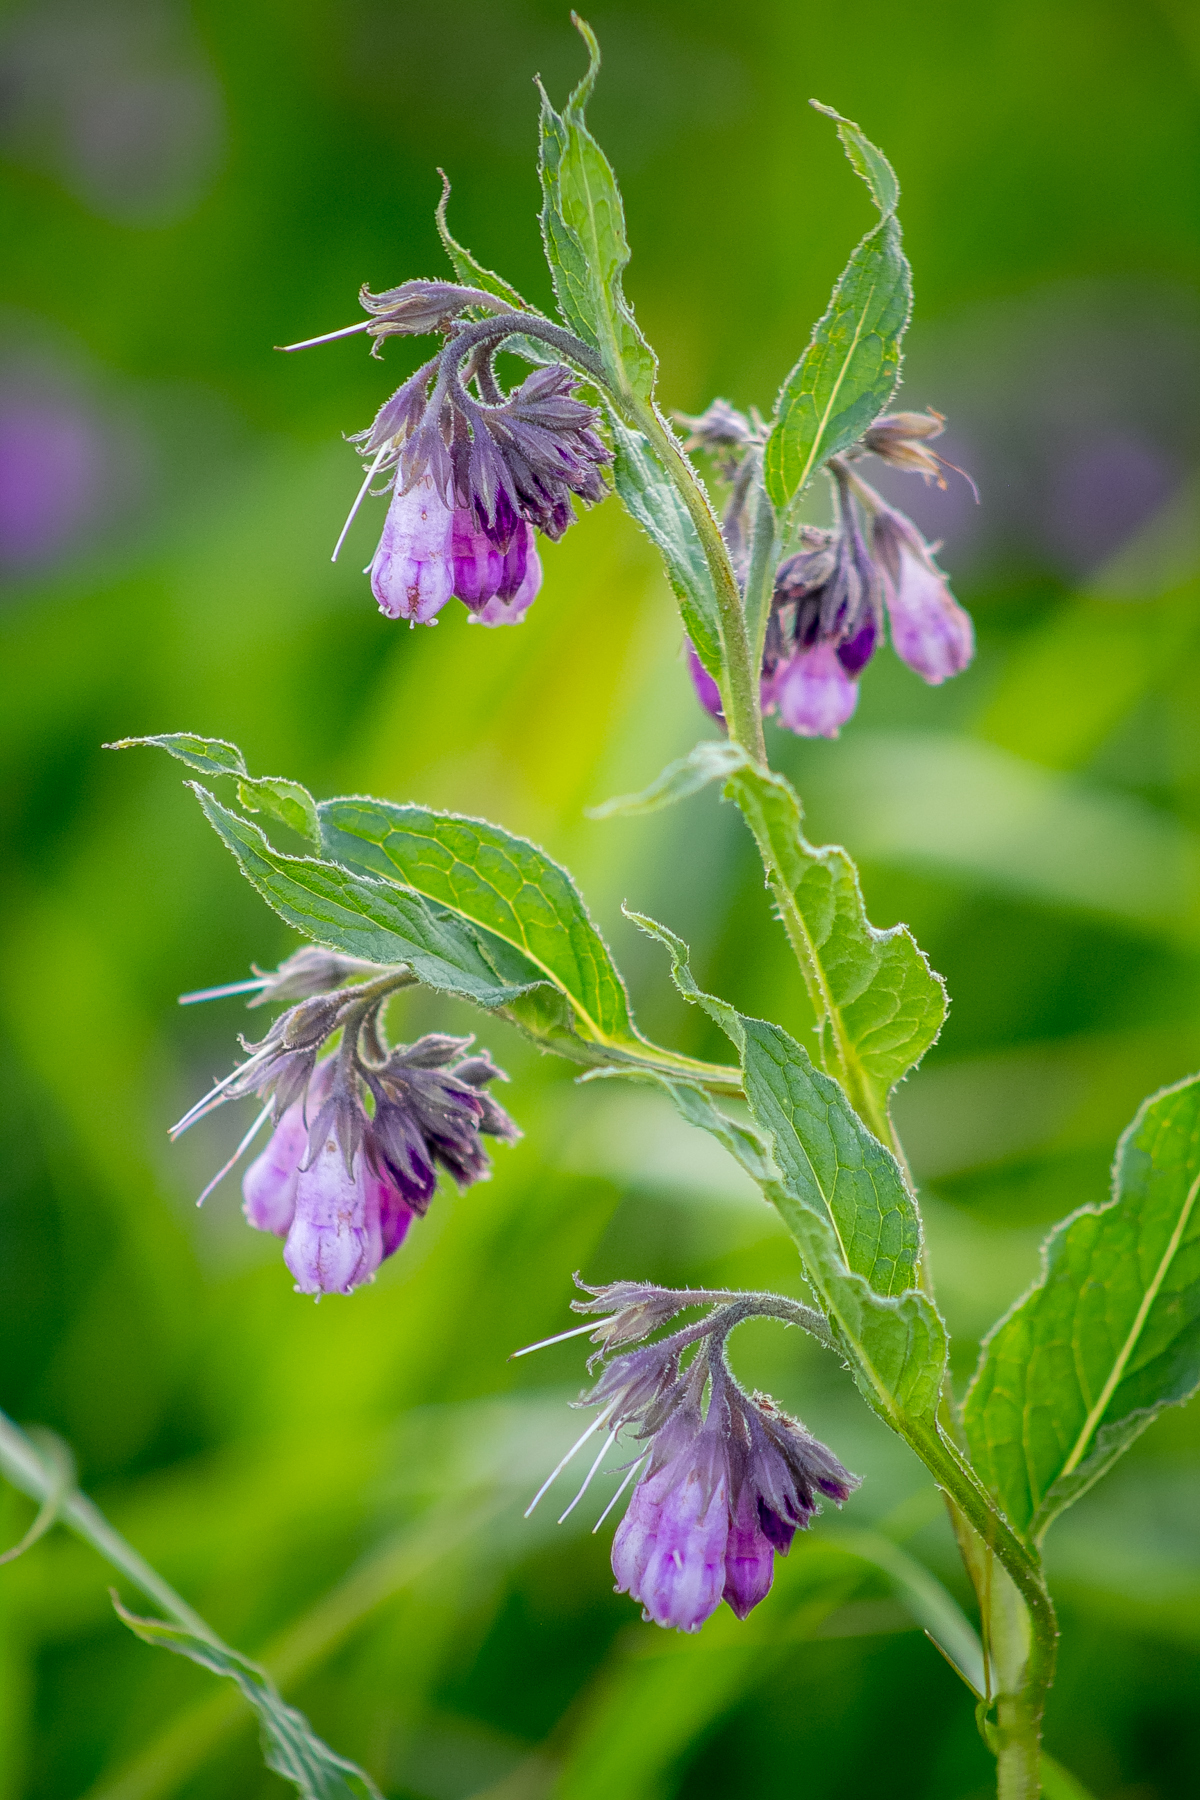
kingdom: Plantae
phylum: Tracheophyta
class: Magnoliopsida
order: Boraginales
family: Boraginaceae
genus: Symphytum
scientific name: Symphytum officinale
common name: Common comfrey
